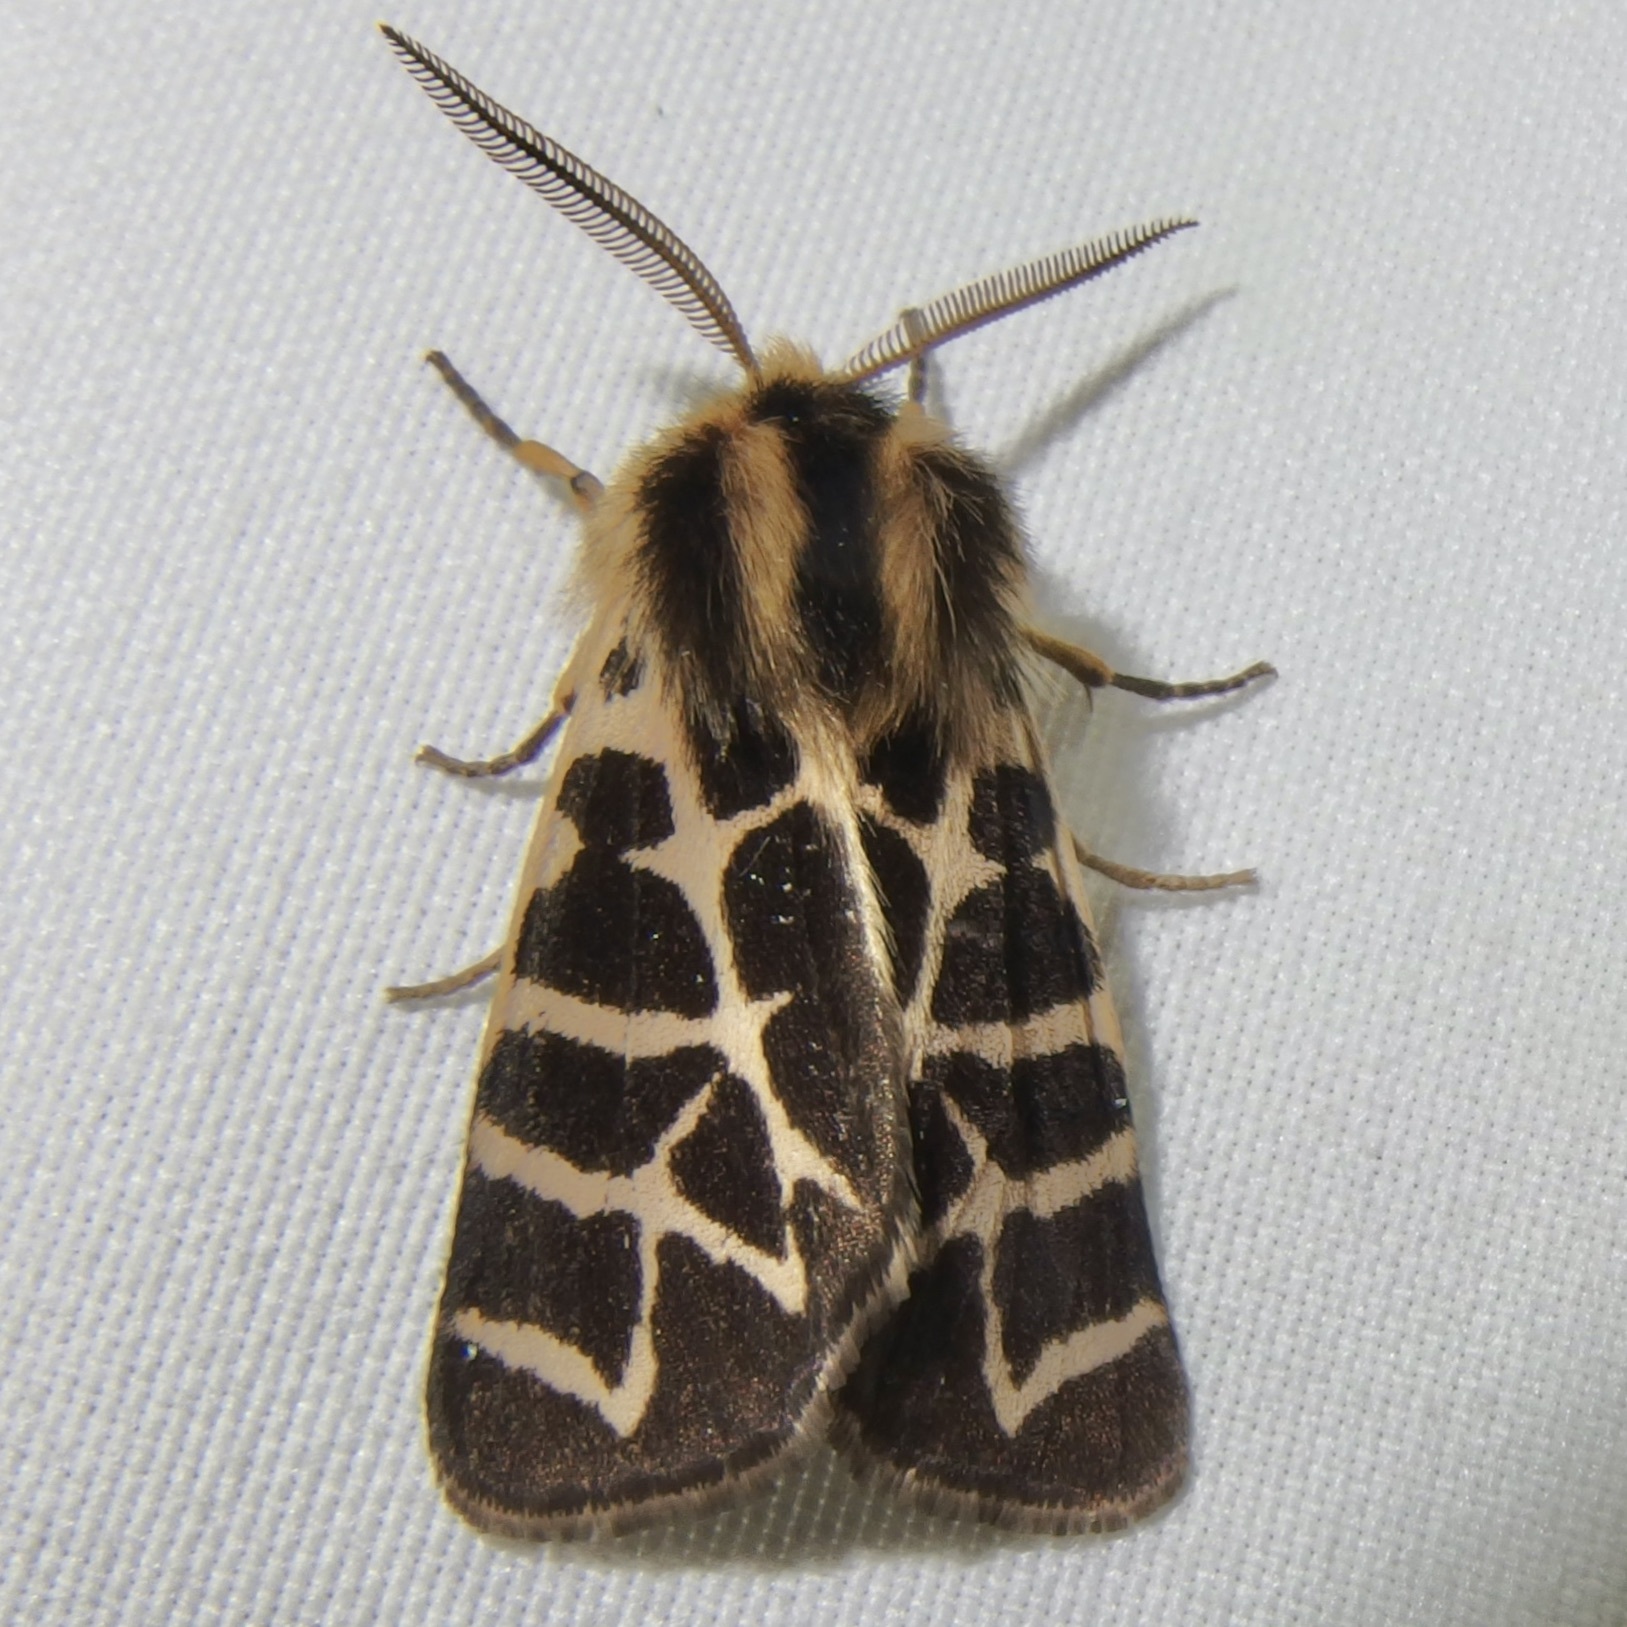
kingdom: Animalia
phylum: Arthropoda
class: Insecta
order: Lepidoptera
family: Erebidae
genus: Apantesis
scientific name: Apantesis
